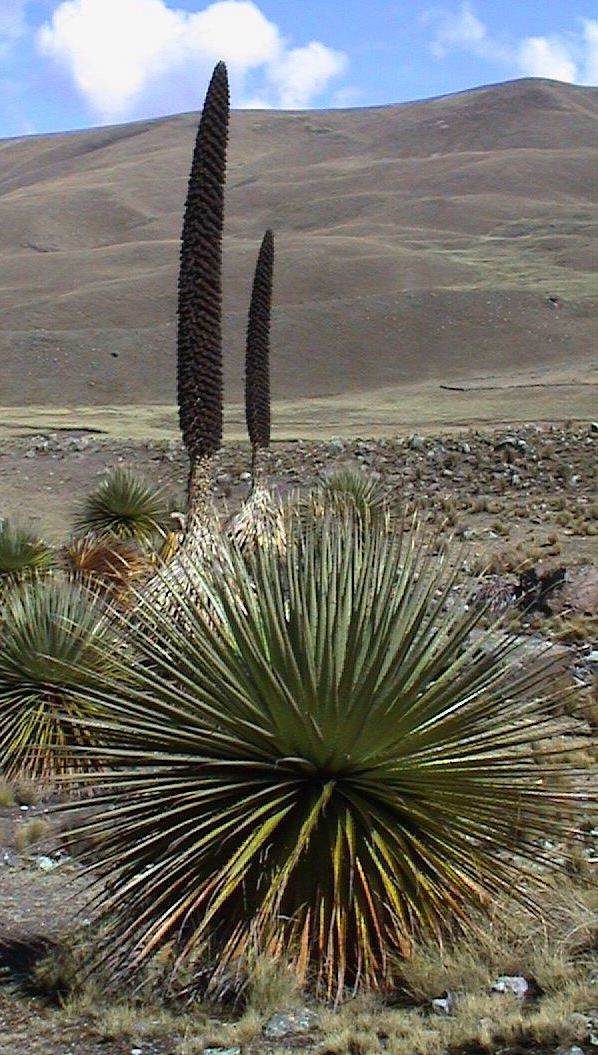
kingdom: Plantae
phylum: Tracheophyta
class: Liliopsida
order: Poales
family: Bromeliaceae
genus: Puya
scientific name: Puya raimondii
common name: Queen of the andes
